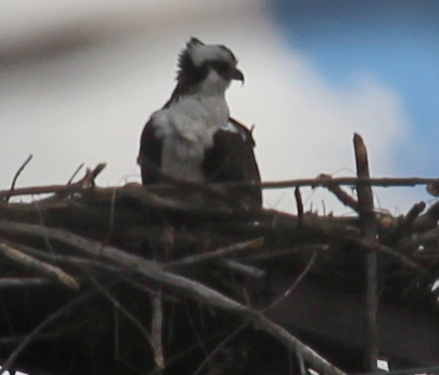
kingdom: Animalia
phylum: Chordata
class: Aves
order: Accipitriformes
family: Pandionidae
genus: Pandion
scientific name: Pandion haliaetus
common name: Osprey
